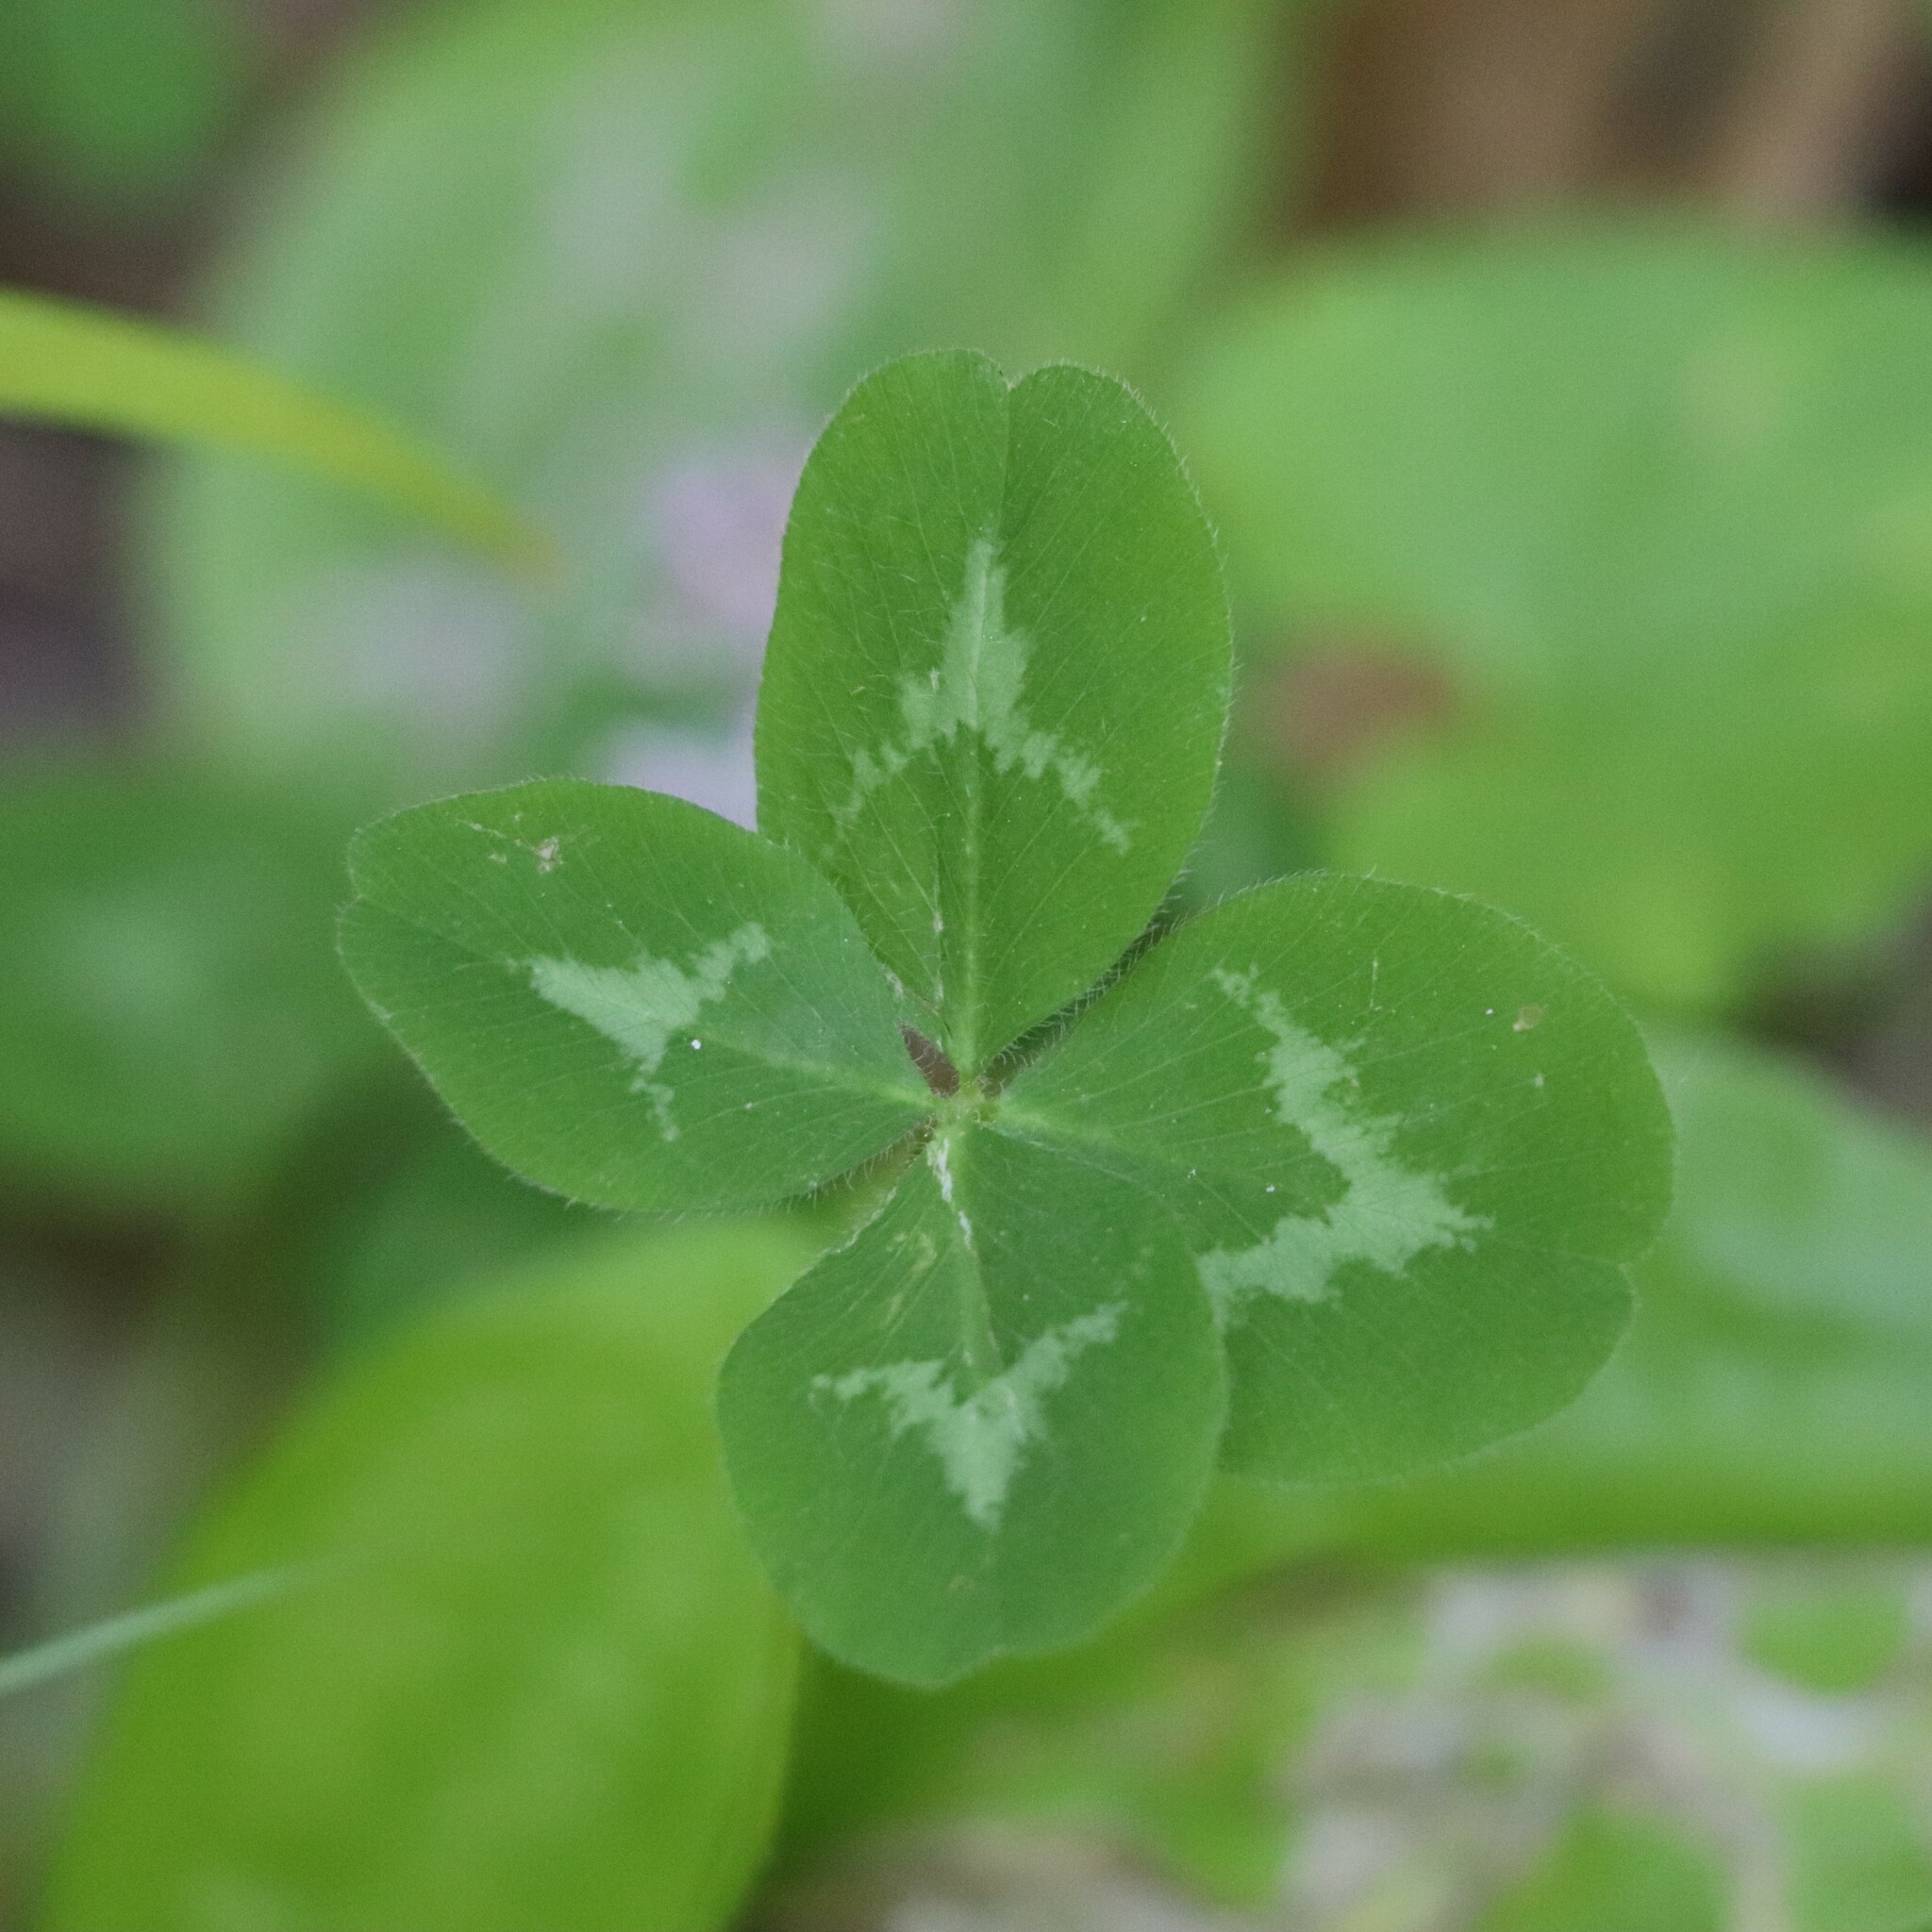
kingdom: Plantae
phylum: Tracheophyta
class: Magnoliopsida
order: Fabales
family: Fabaceae
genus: Trifolium
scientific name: Trifolium pratense
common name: Red clover
